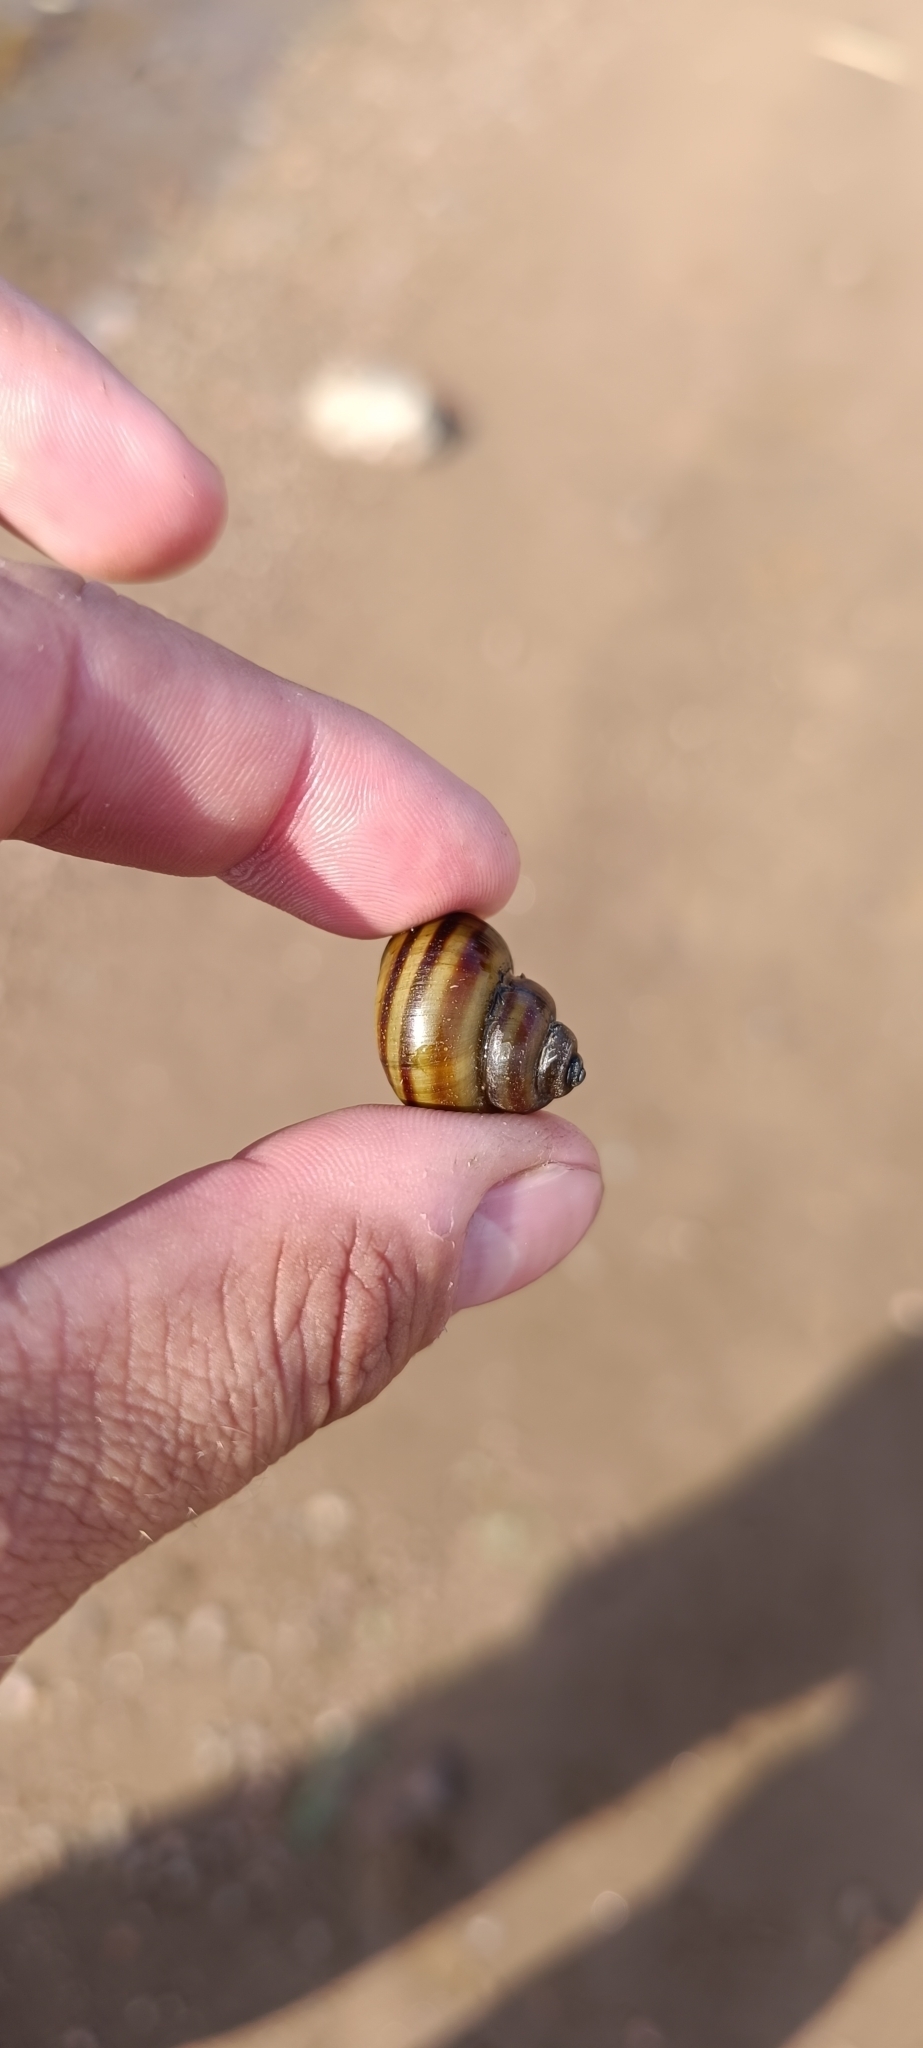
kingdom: Animalia
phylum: Mollusca
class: Gastropoda
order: Architaenioglossa
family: Viviparidae
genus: Viviparus
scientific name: Viviparus contectus
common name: Lister's river snail
